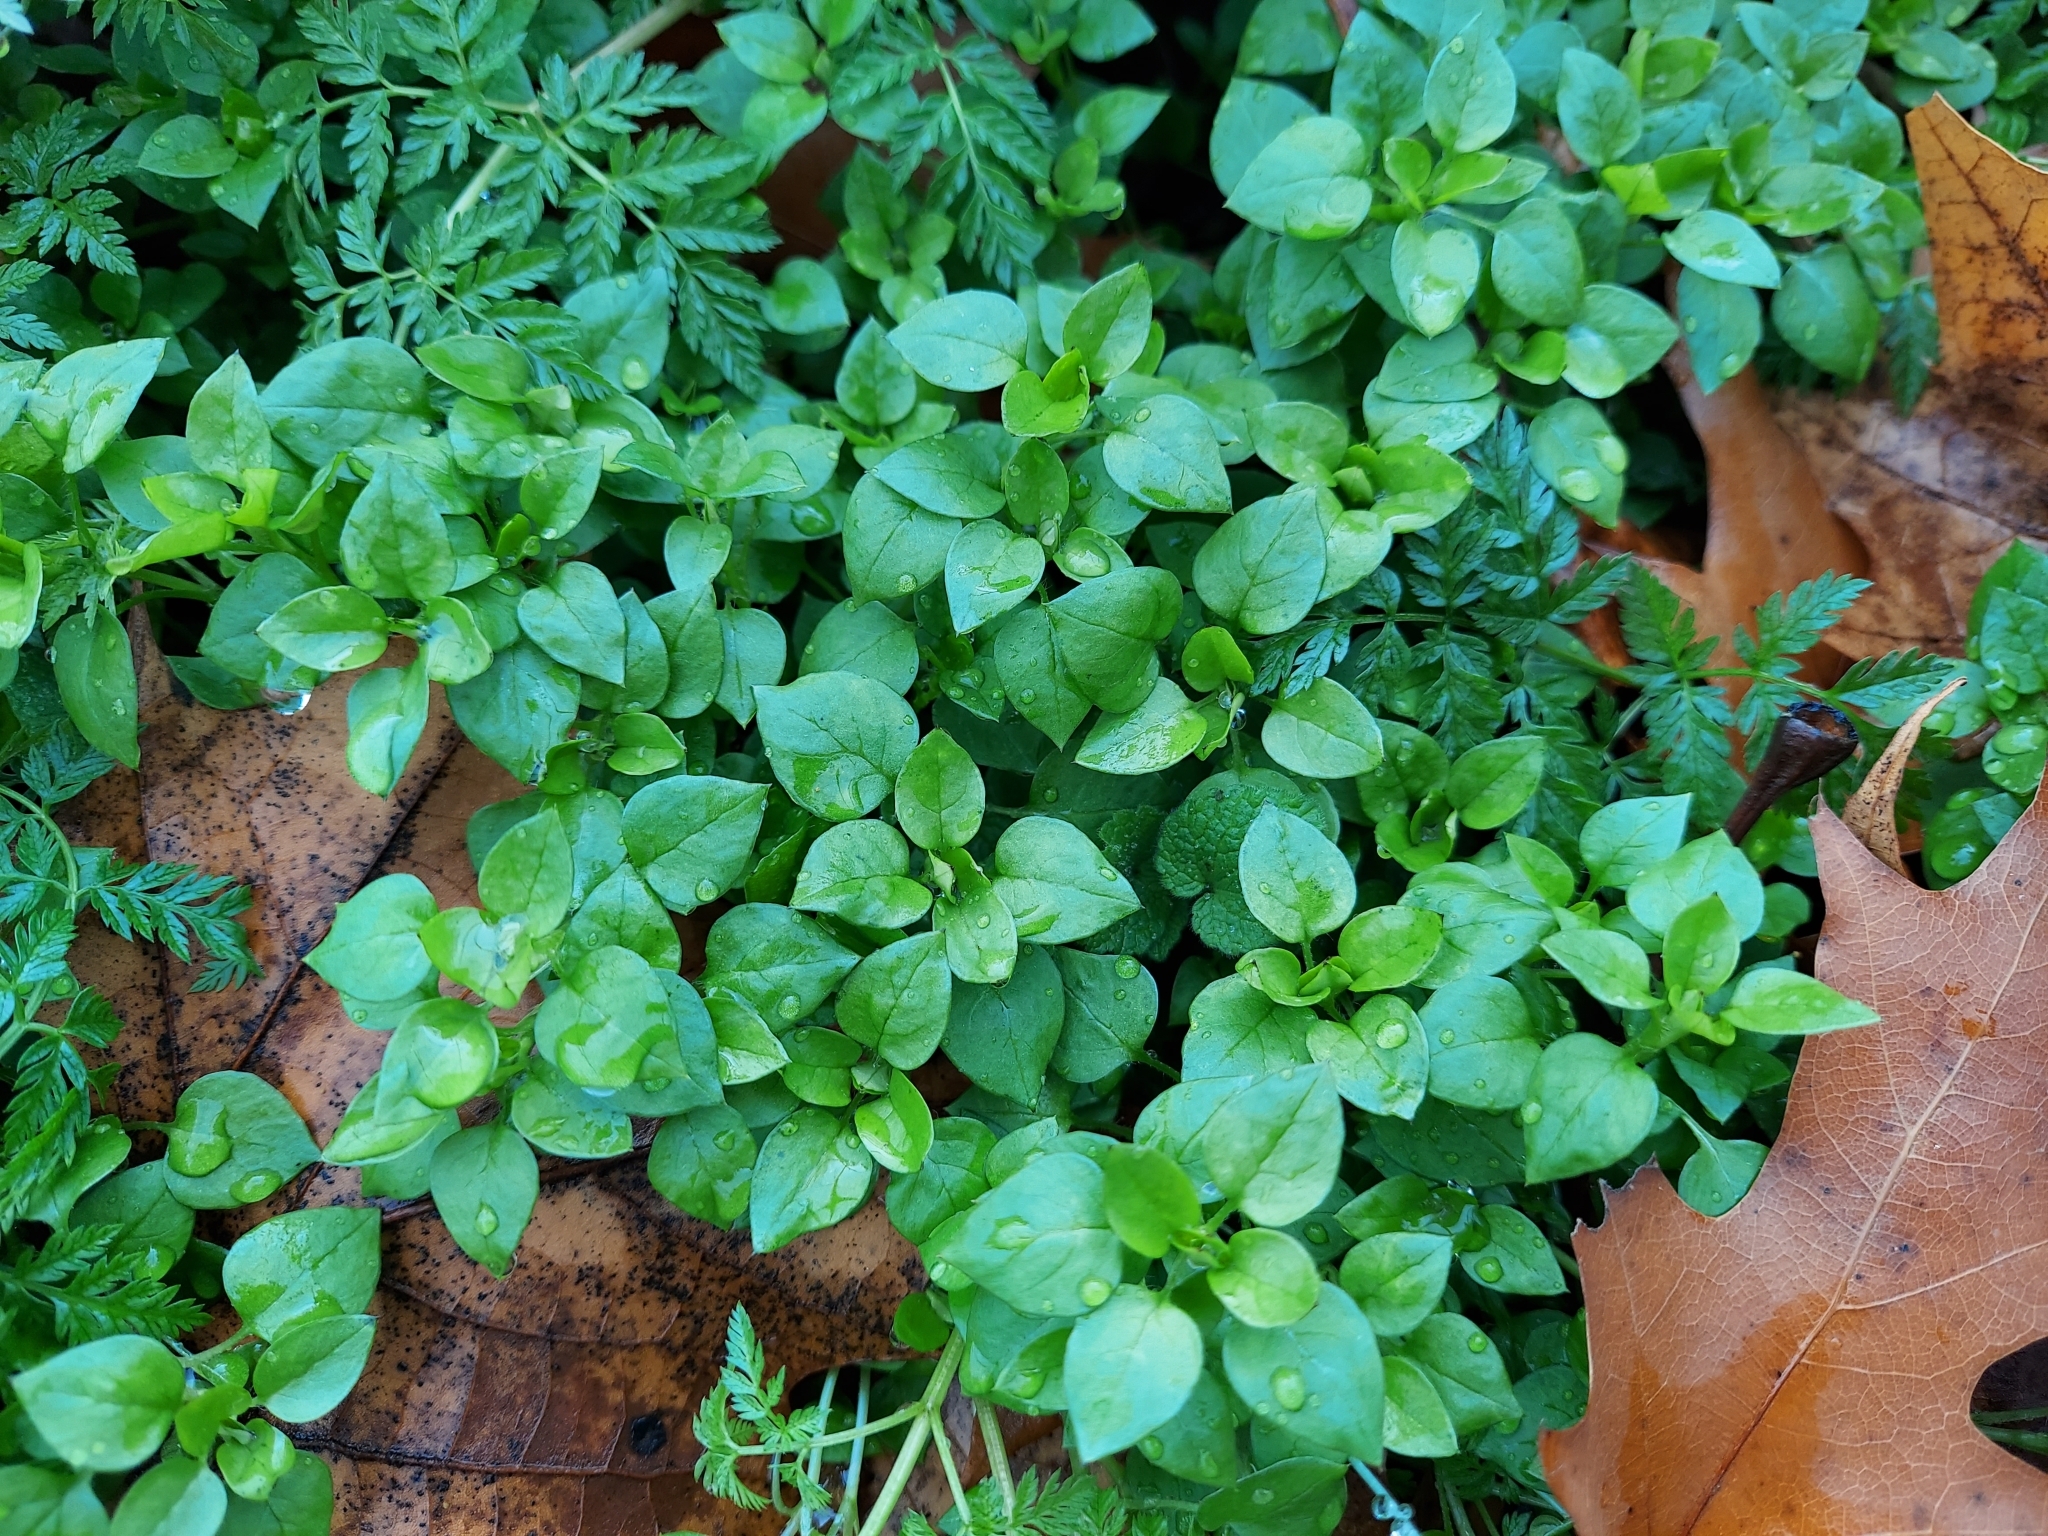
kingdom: Plantae
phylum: Tracheophyta
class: Magnoliopsida
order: Caryophyllales
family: Caryophyllaceae
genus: Stellaria
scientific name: Stellaria media
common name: Common chickweed
